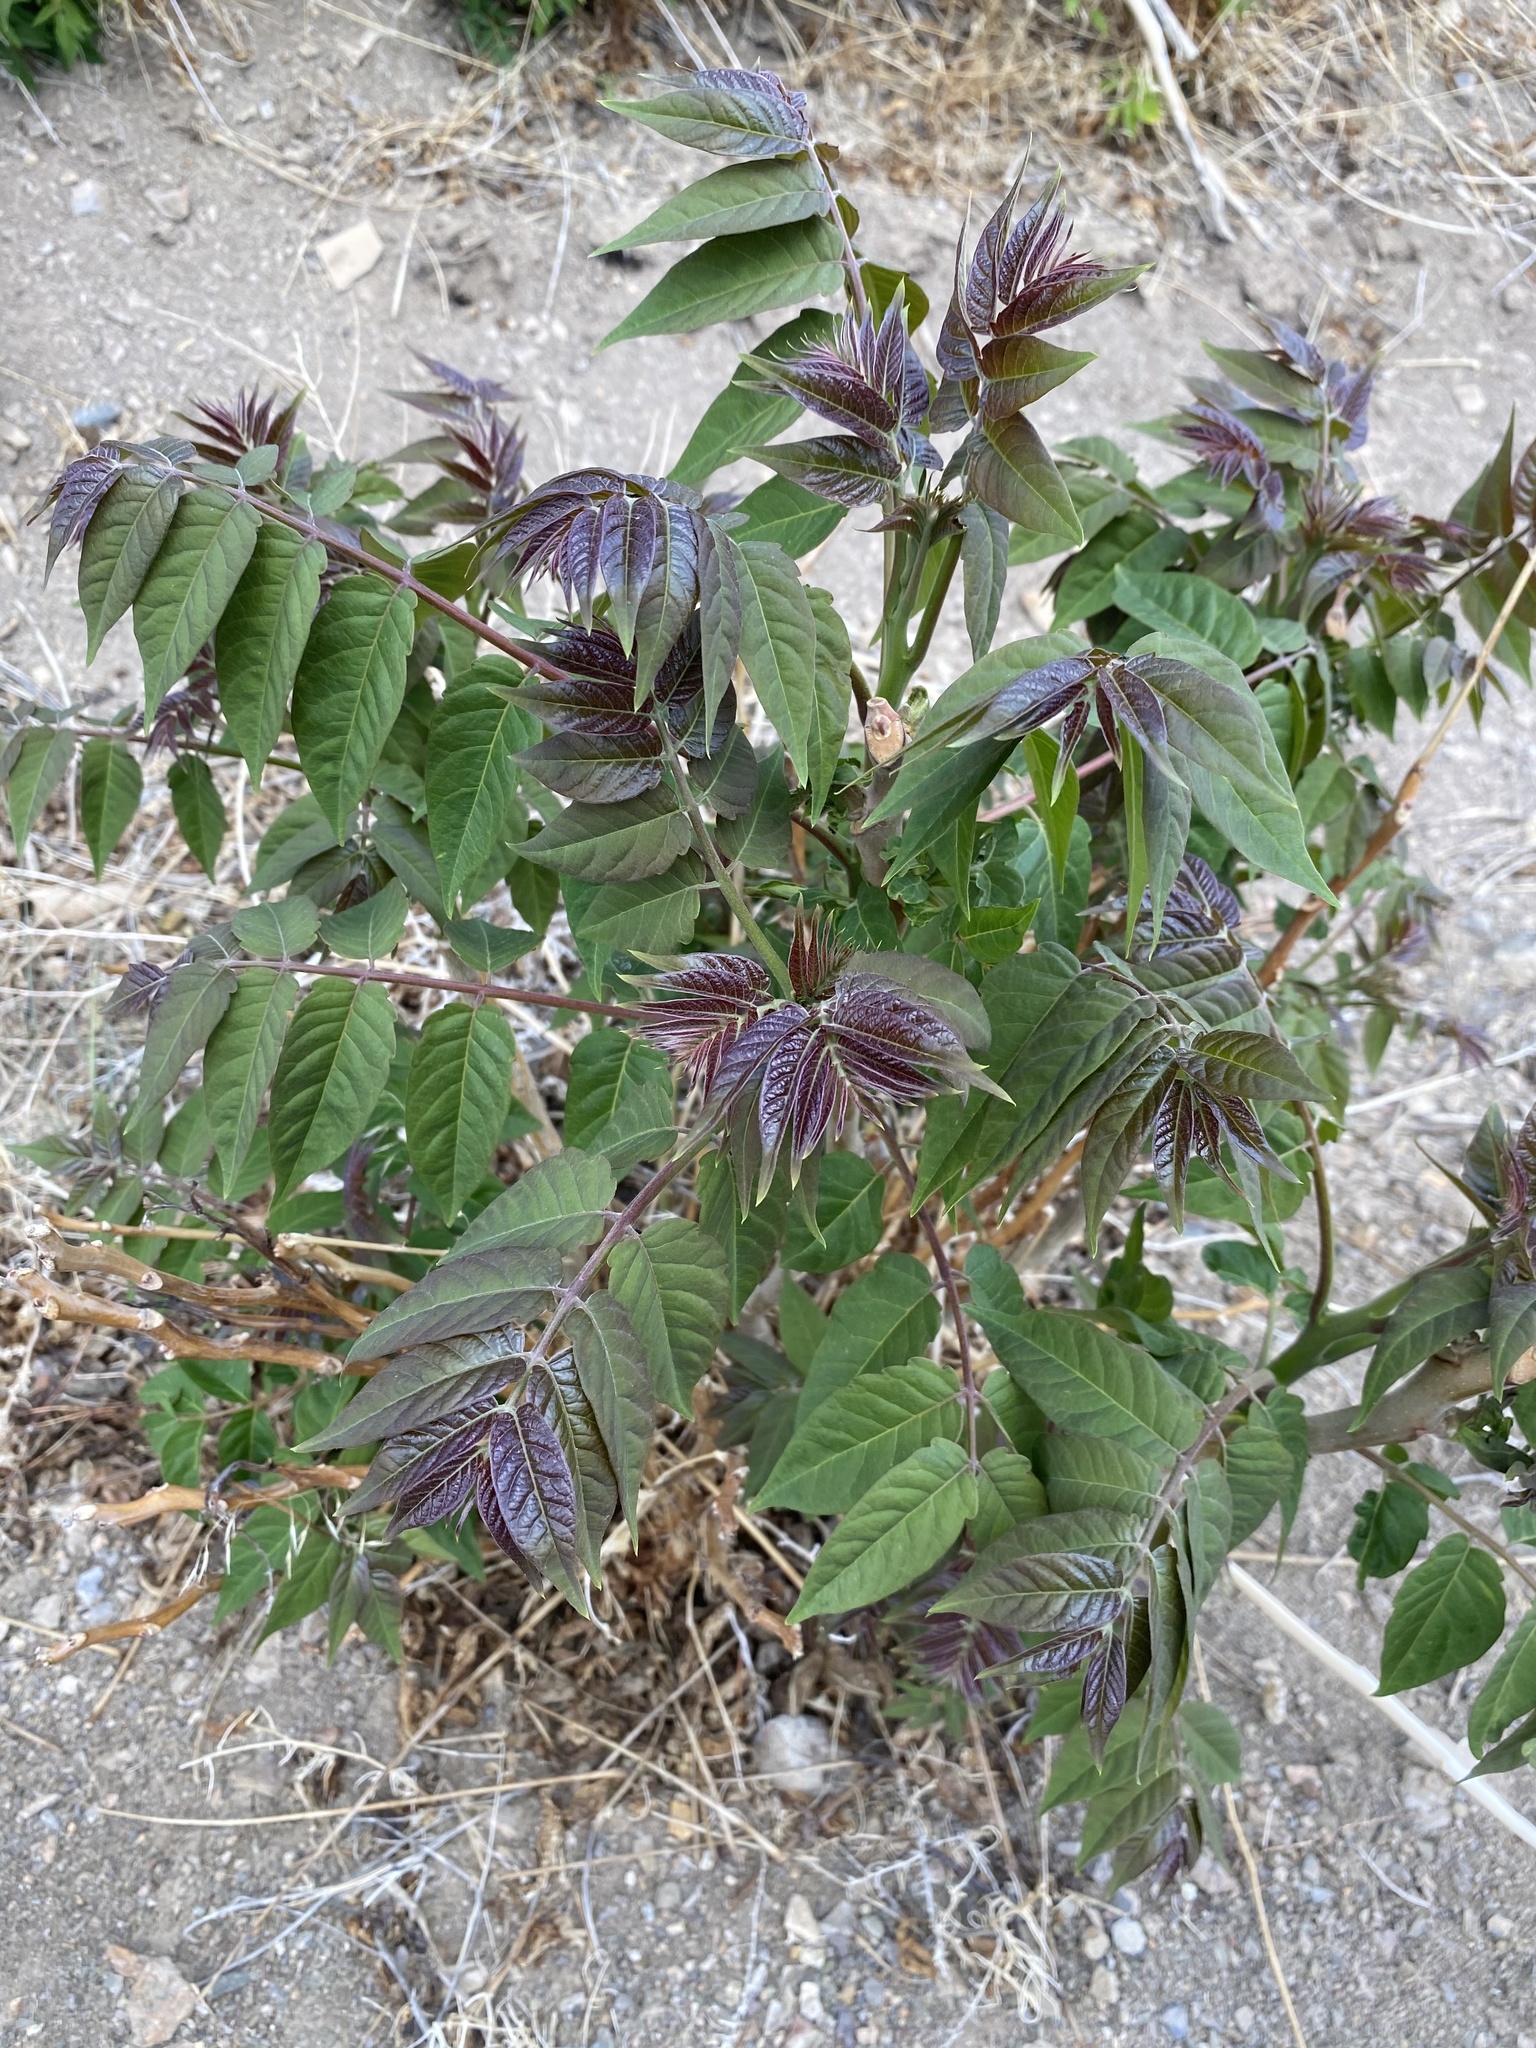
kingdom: Plantae
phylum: Tracheophyta
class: Magnoliopsida
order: Sapindales
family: Simaroubaceae
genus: Ailanthus
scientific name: Ailanthus altissima
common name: Tree-of-heaven
